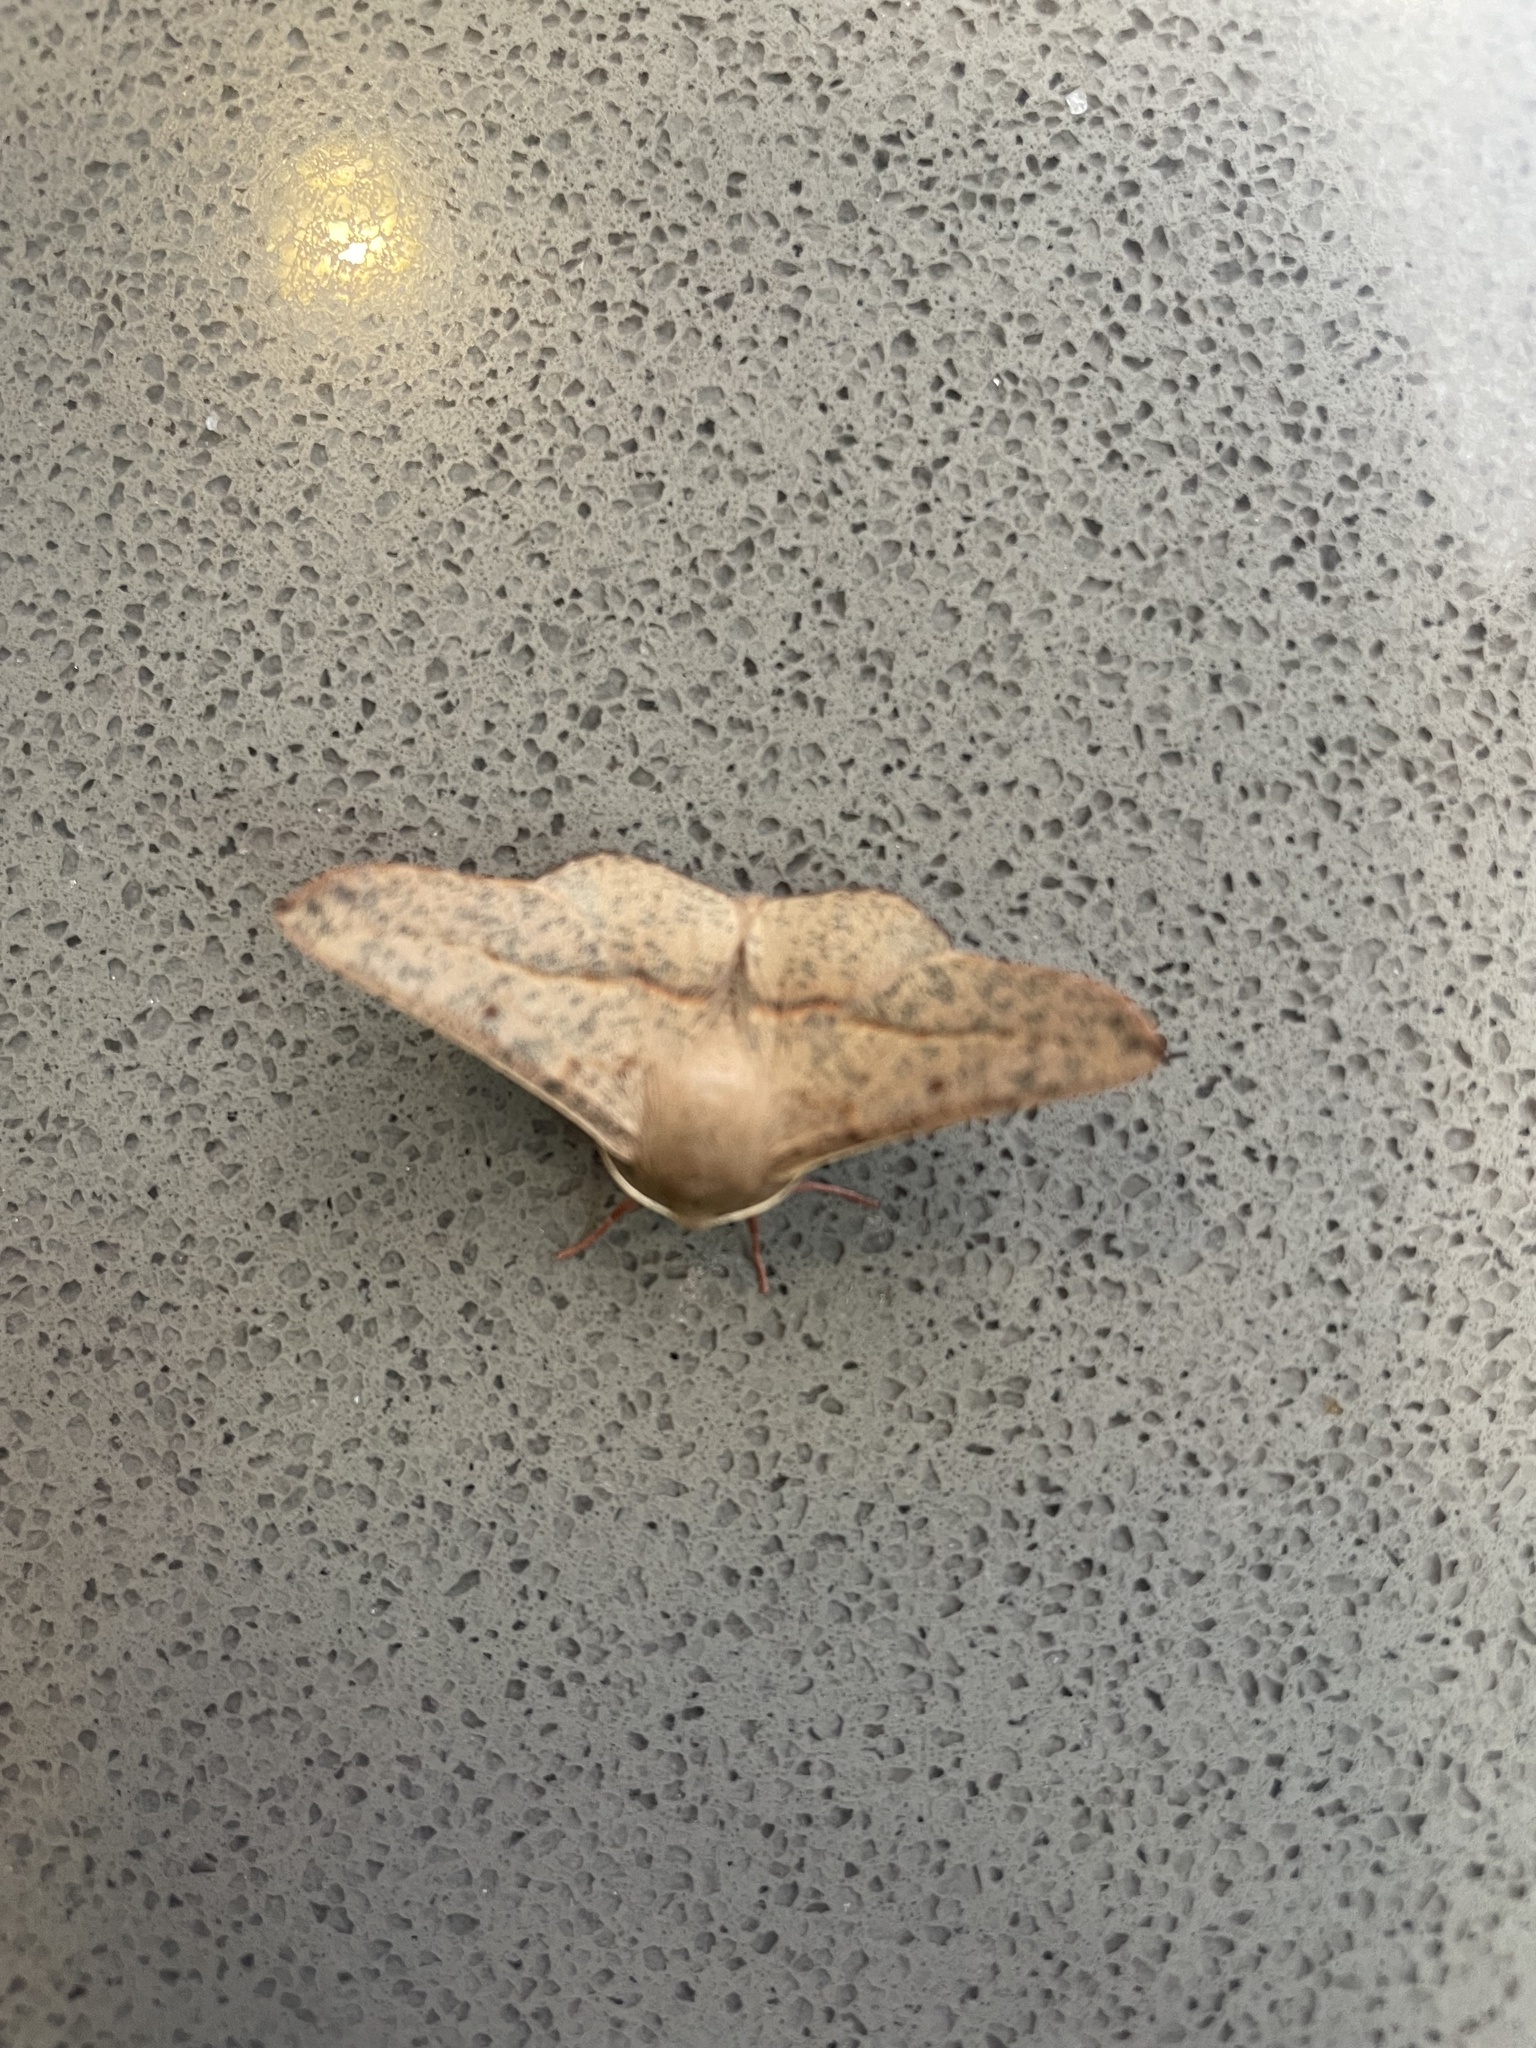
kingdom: Animalia
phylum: Arthropoda
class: Insecta
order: Lepidoptera
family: Geometridae
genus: Antictenia
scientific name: Antictenia punctunculus
